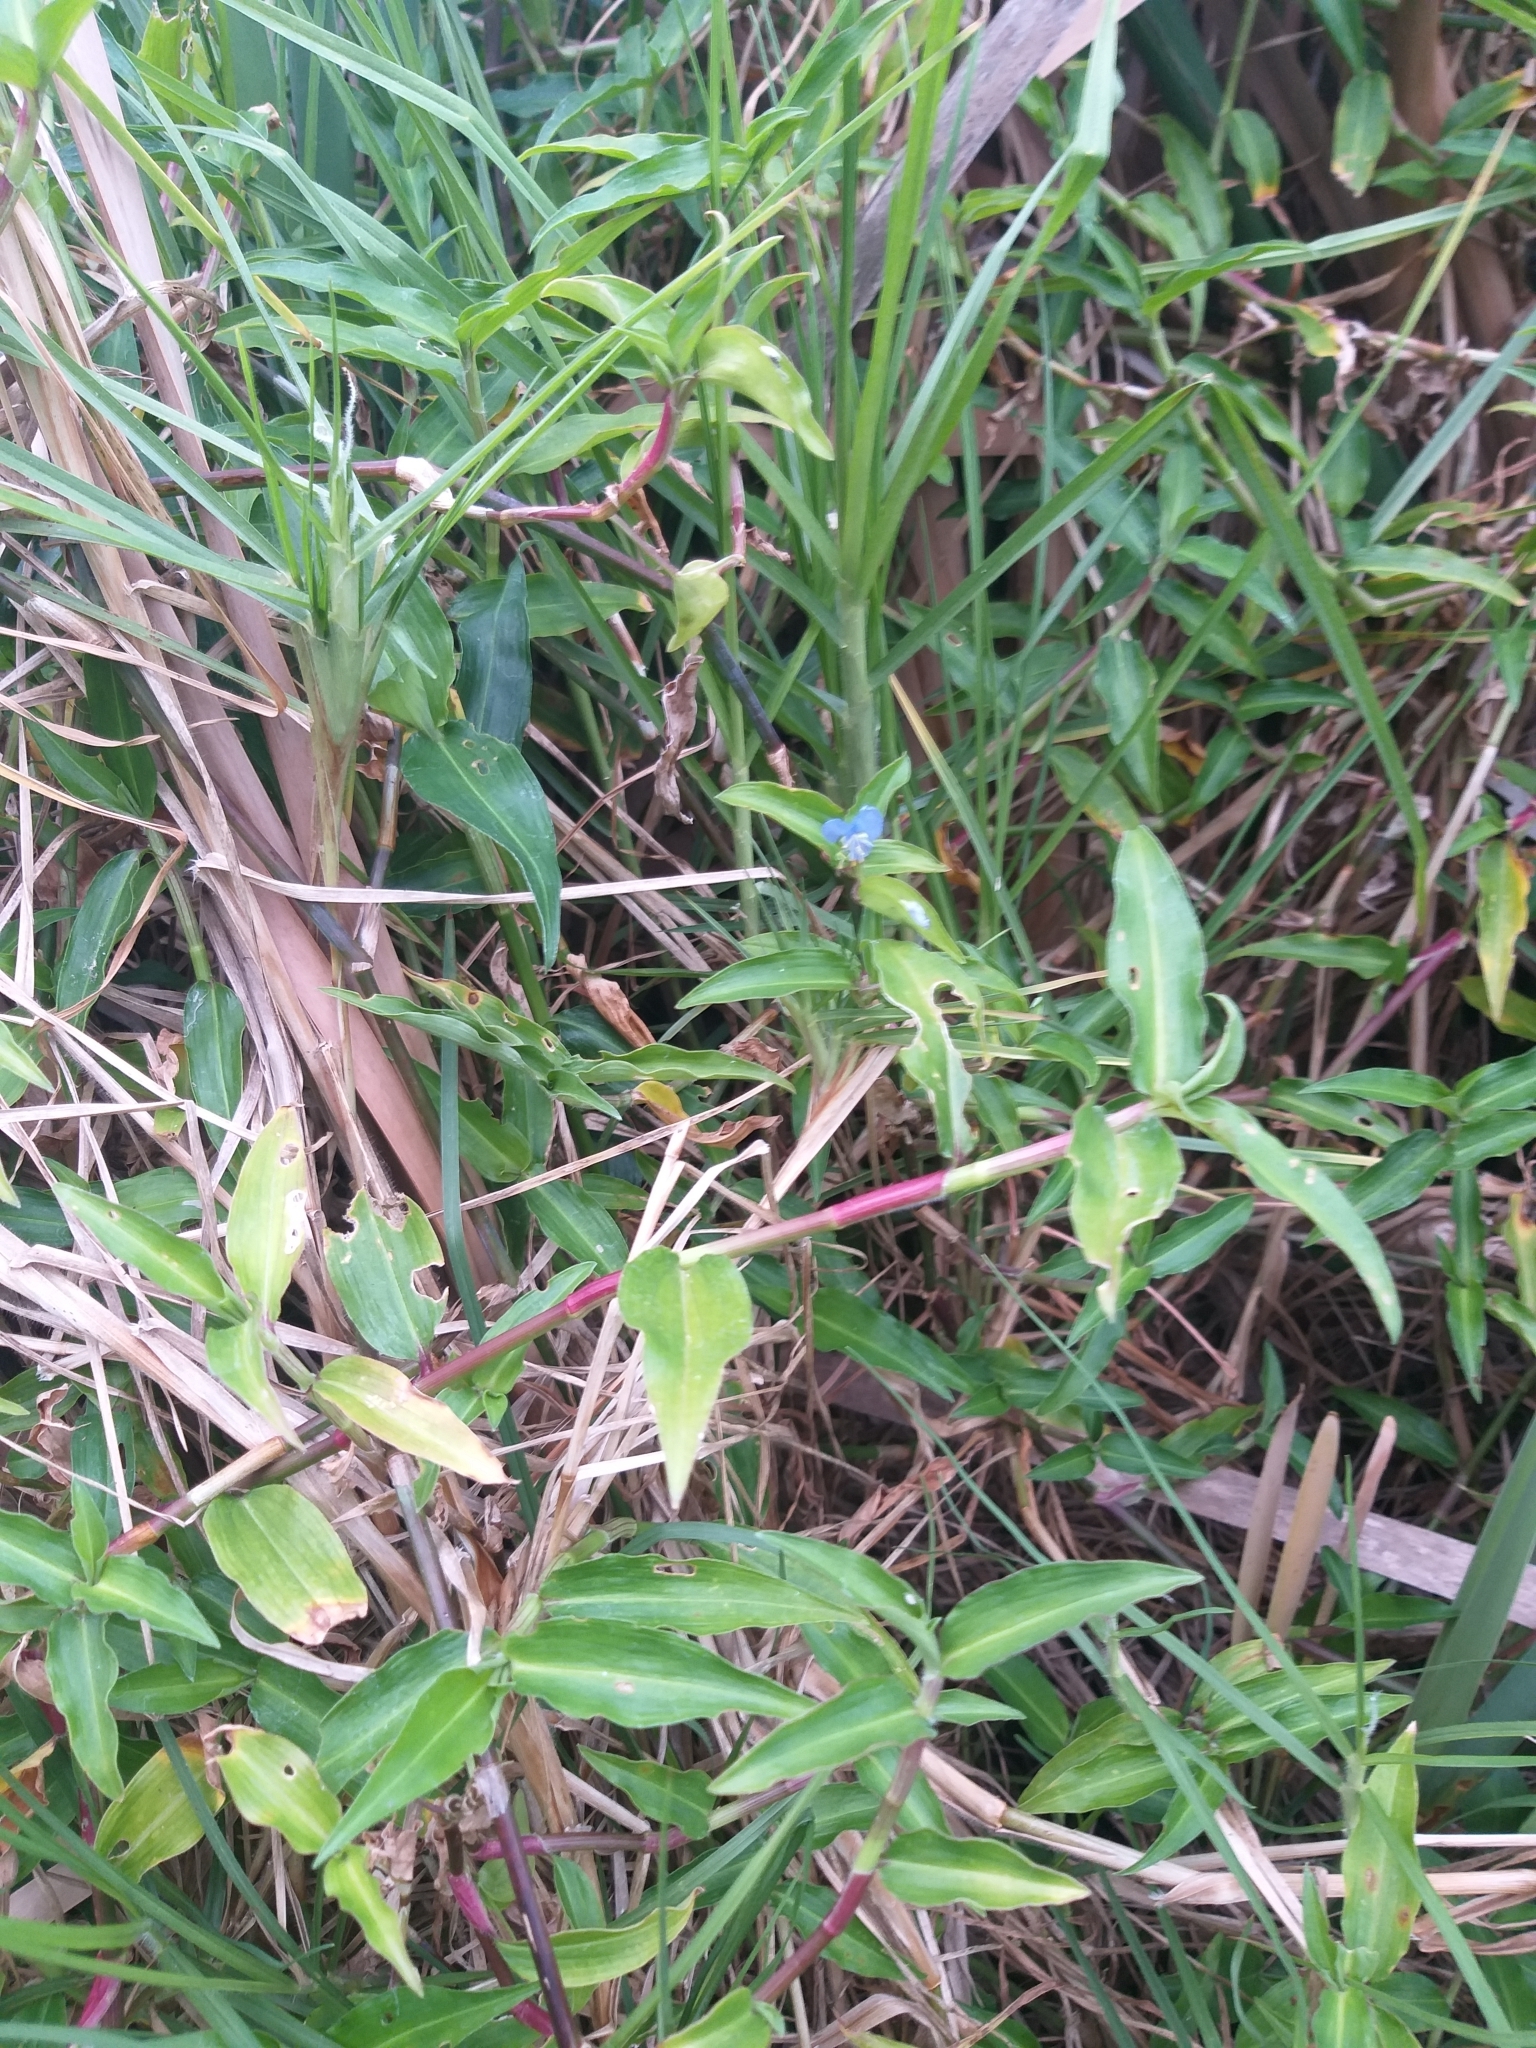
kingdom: Plantae
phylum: Tracheophyta
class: Liliopsida
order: Commelinales
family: Commelinaceae
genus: Commelina
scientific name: Commelina diffusa
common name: Climbing dayflower
